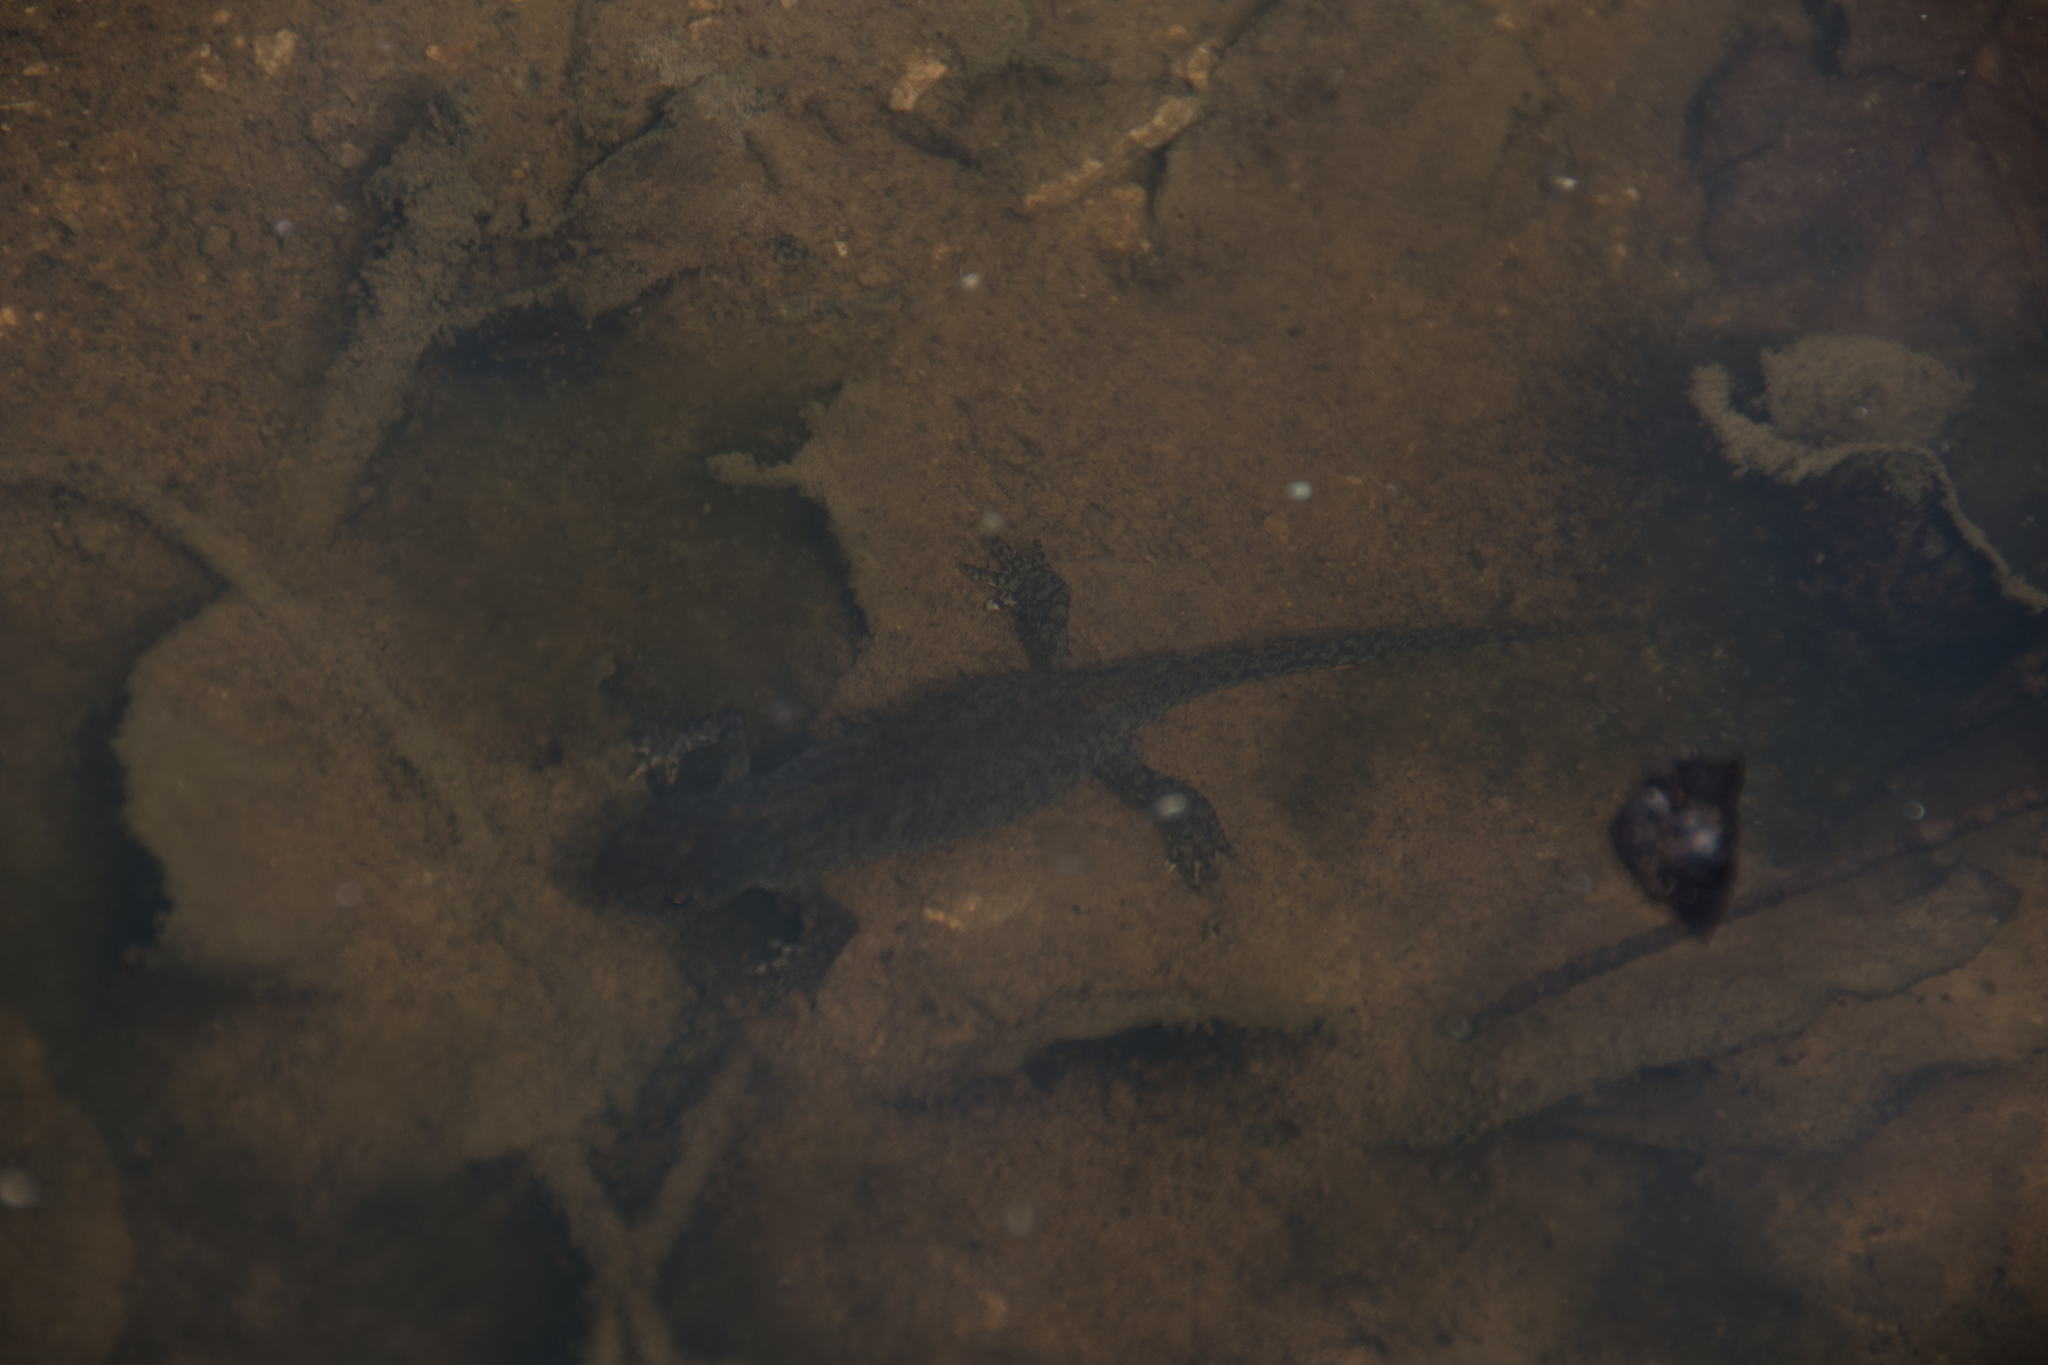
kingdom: Animalia
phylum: Chordata
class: Amphibia
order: Caudata
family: Salamandridae
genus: Ichthyosaura
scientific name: Ichthyosaura alpestris
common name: Alpine newt
